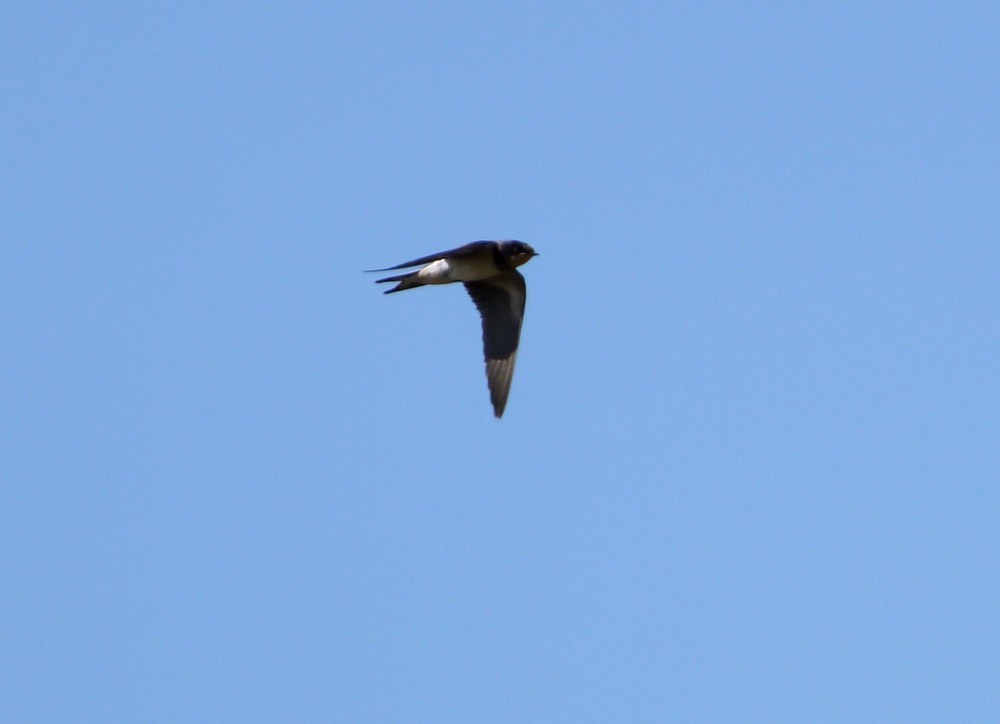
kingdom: Animalia
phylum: Chordata
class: Aves
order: Passeriformes
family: Hirundinidae
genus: Hirundo
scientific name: Hirundo rustica
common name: Barn swallow
